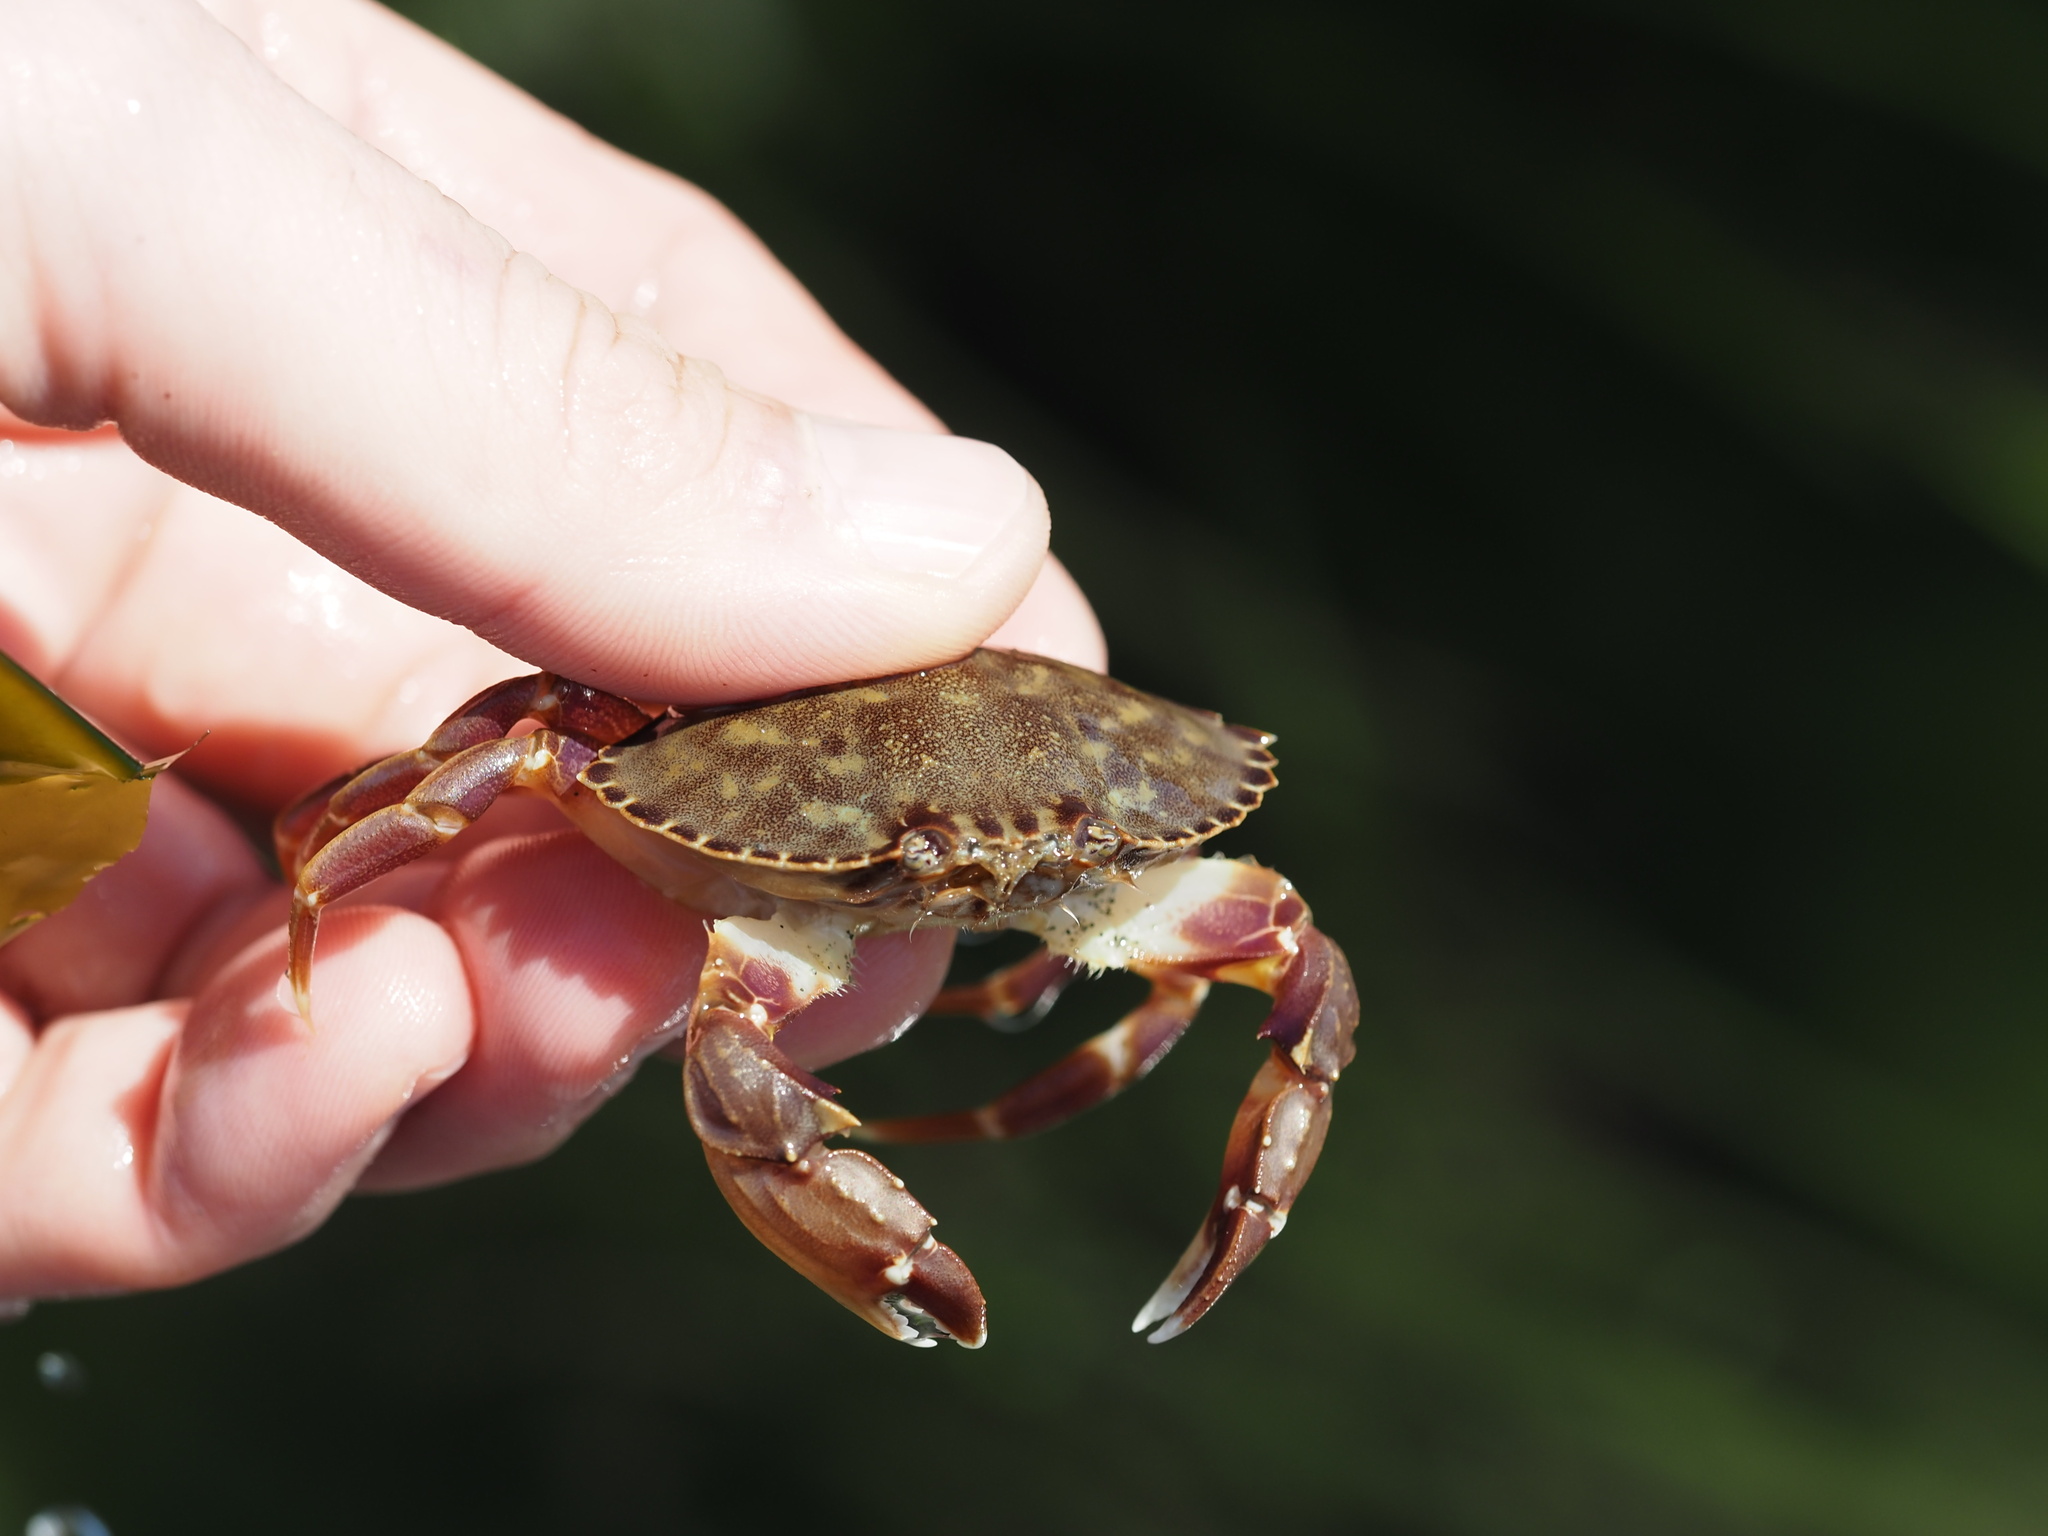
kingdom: Animalia
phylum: Arthropoda
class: Malacostraca
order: Decapoda
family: Cancridae
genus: Metacarcinus
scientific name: Metacarcinus gracilis
